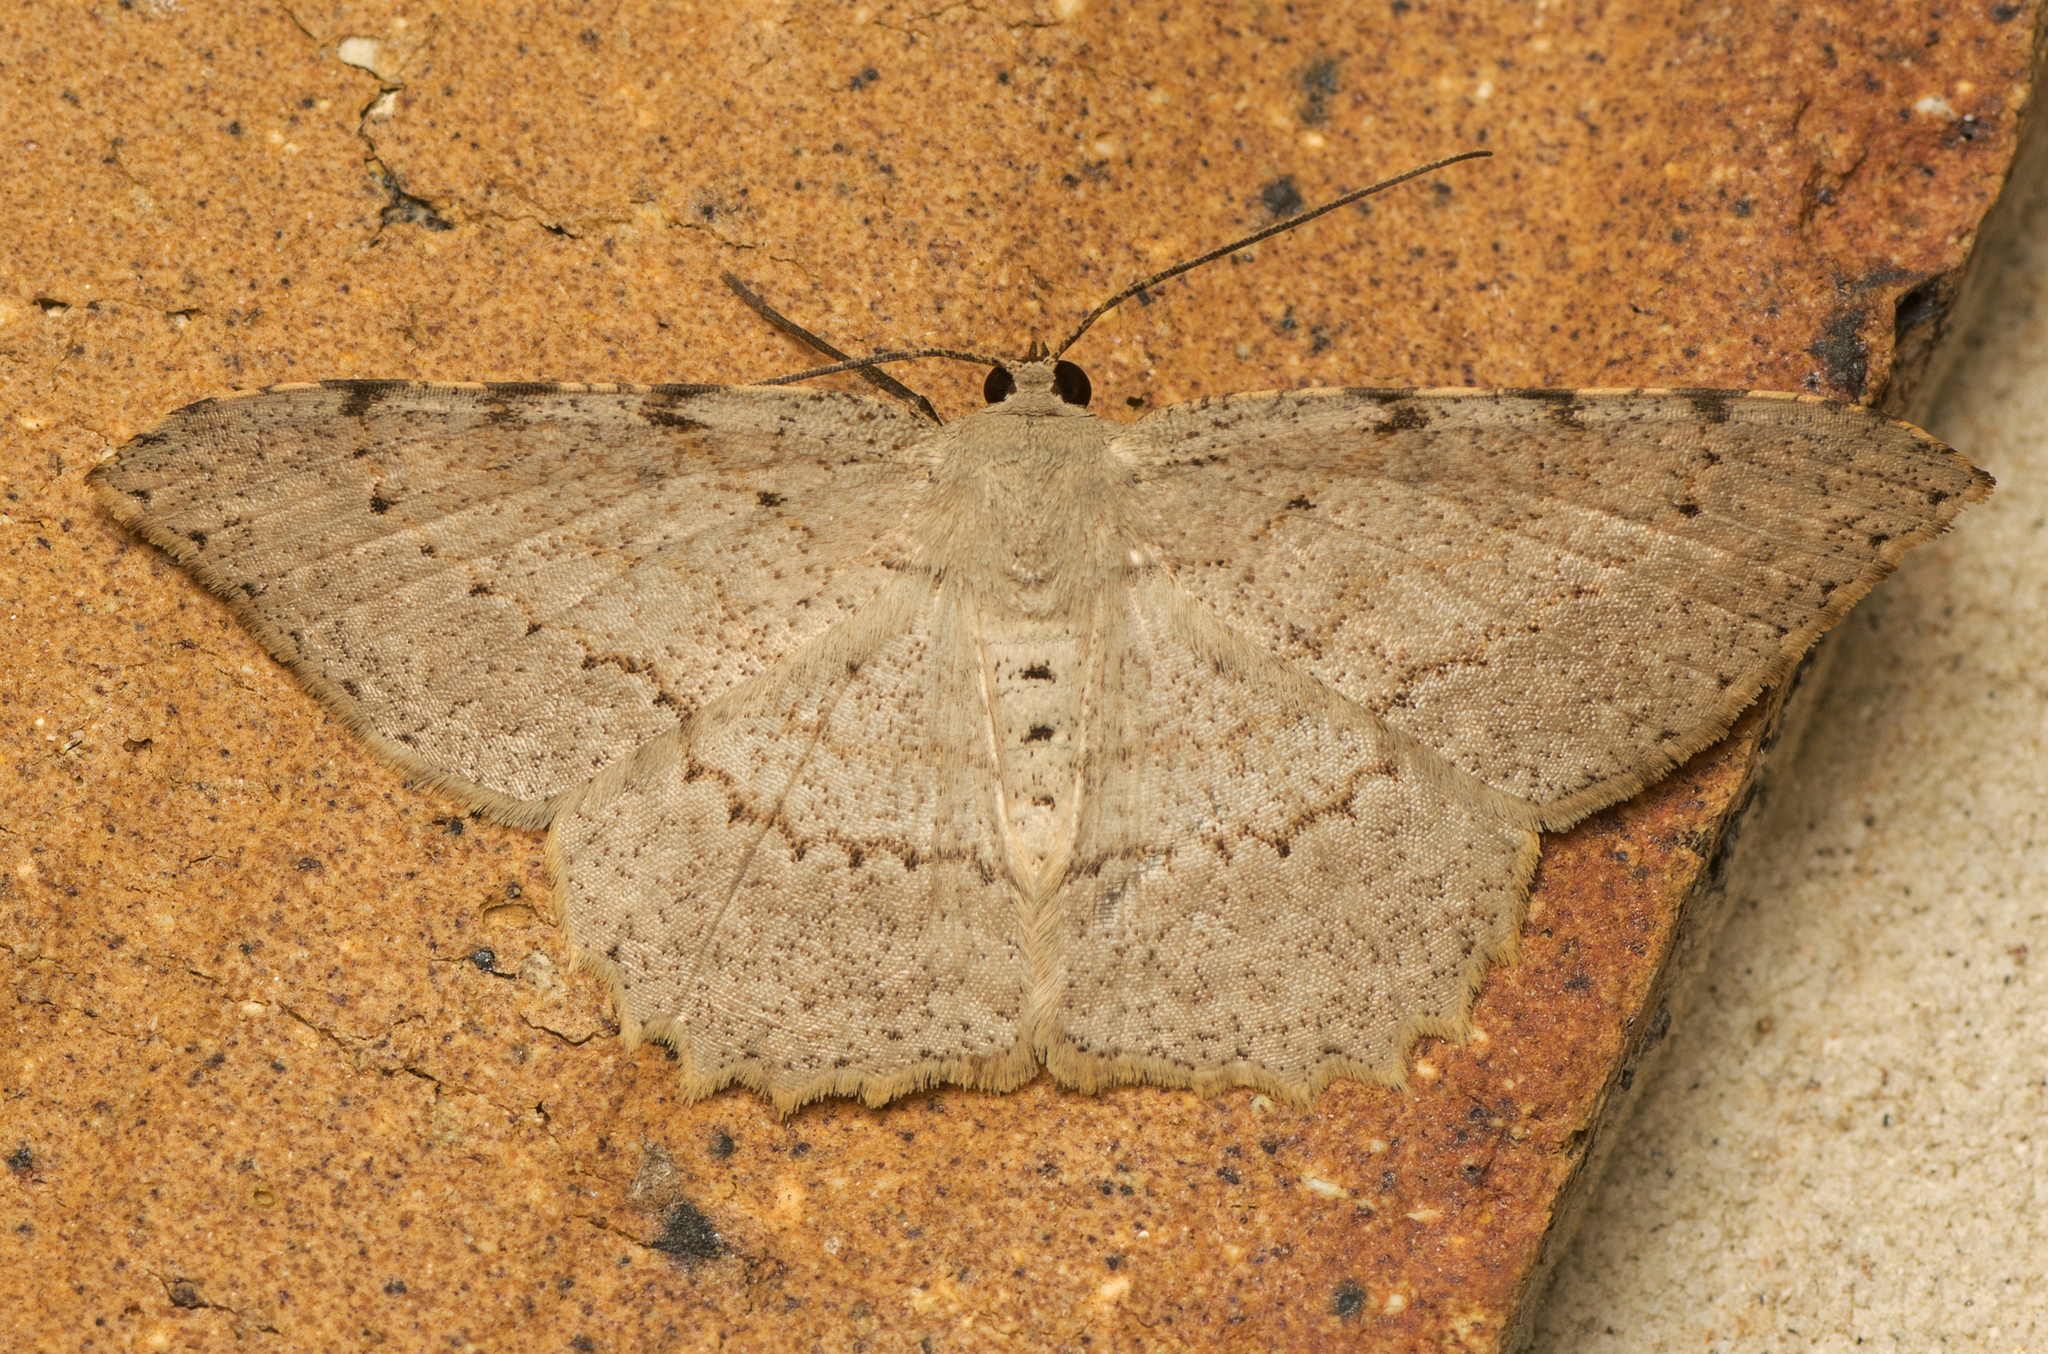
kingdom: Animalia
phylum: Arthropoda
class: Insecta
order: Lepidoptera
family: Geometridae
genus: Luxiaria
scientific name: Luxiaria ochrophara
